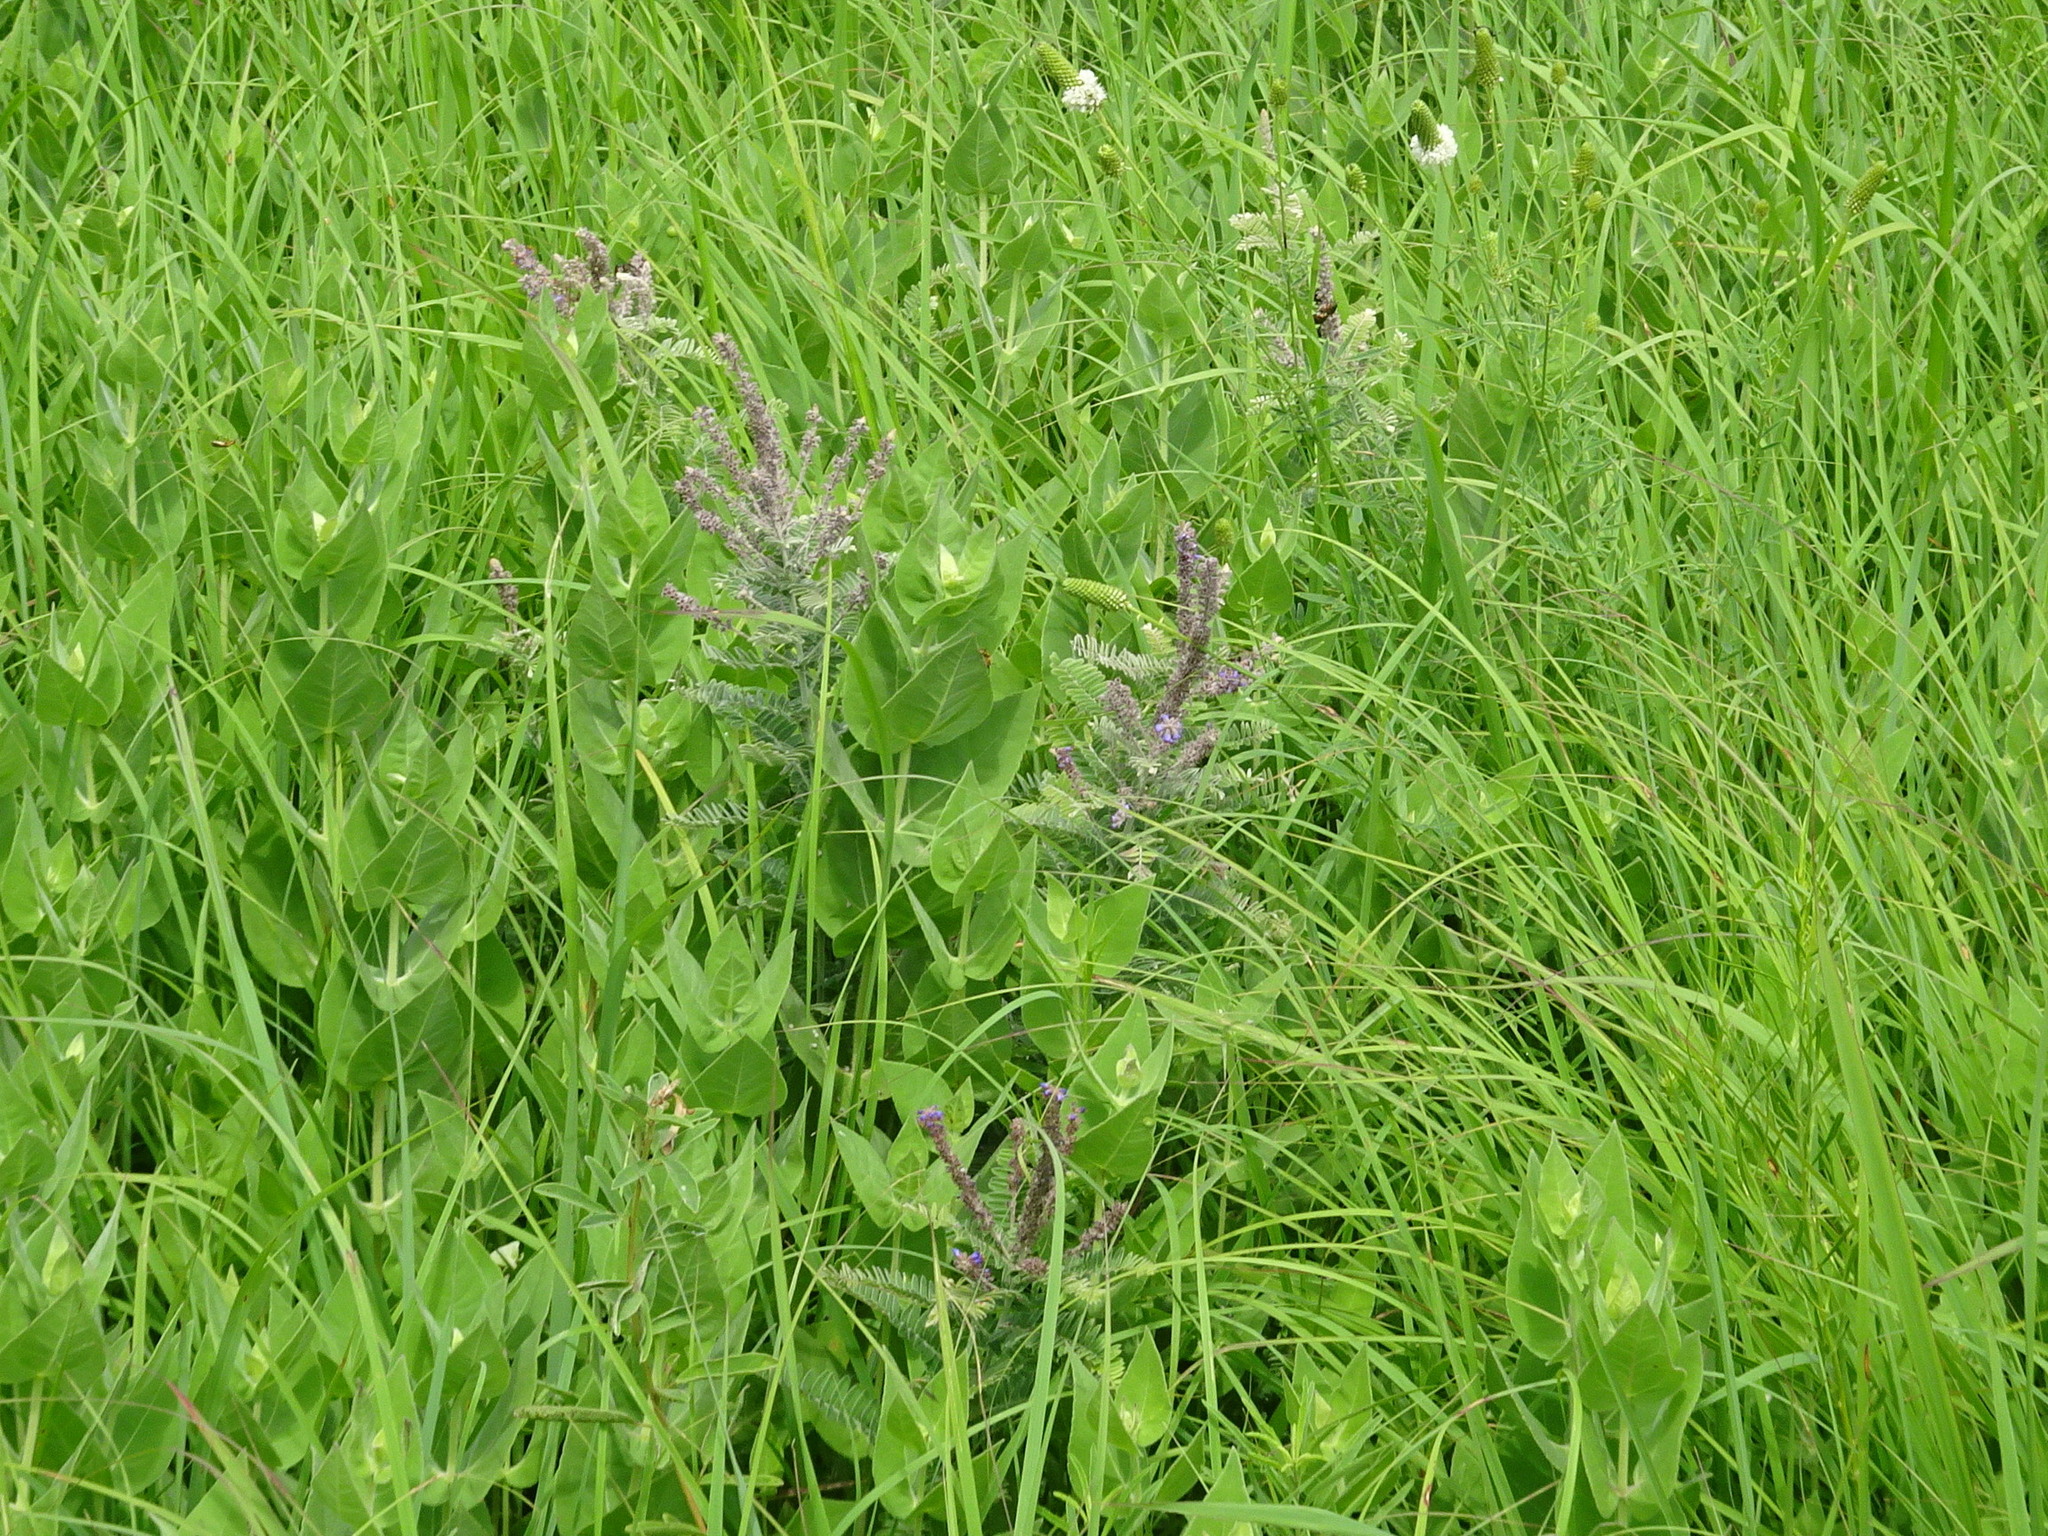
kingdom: Plantae
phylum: Tracheophyta
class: Magnoliopsida
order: Fabales
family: Fabaceae
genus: Amorpha
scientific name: Amorpha canescens
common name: Leadplant
